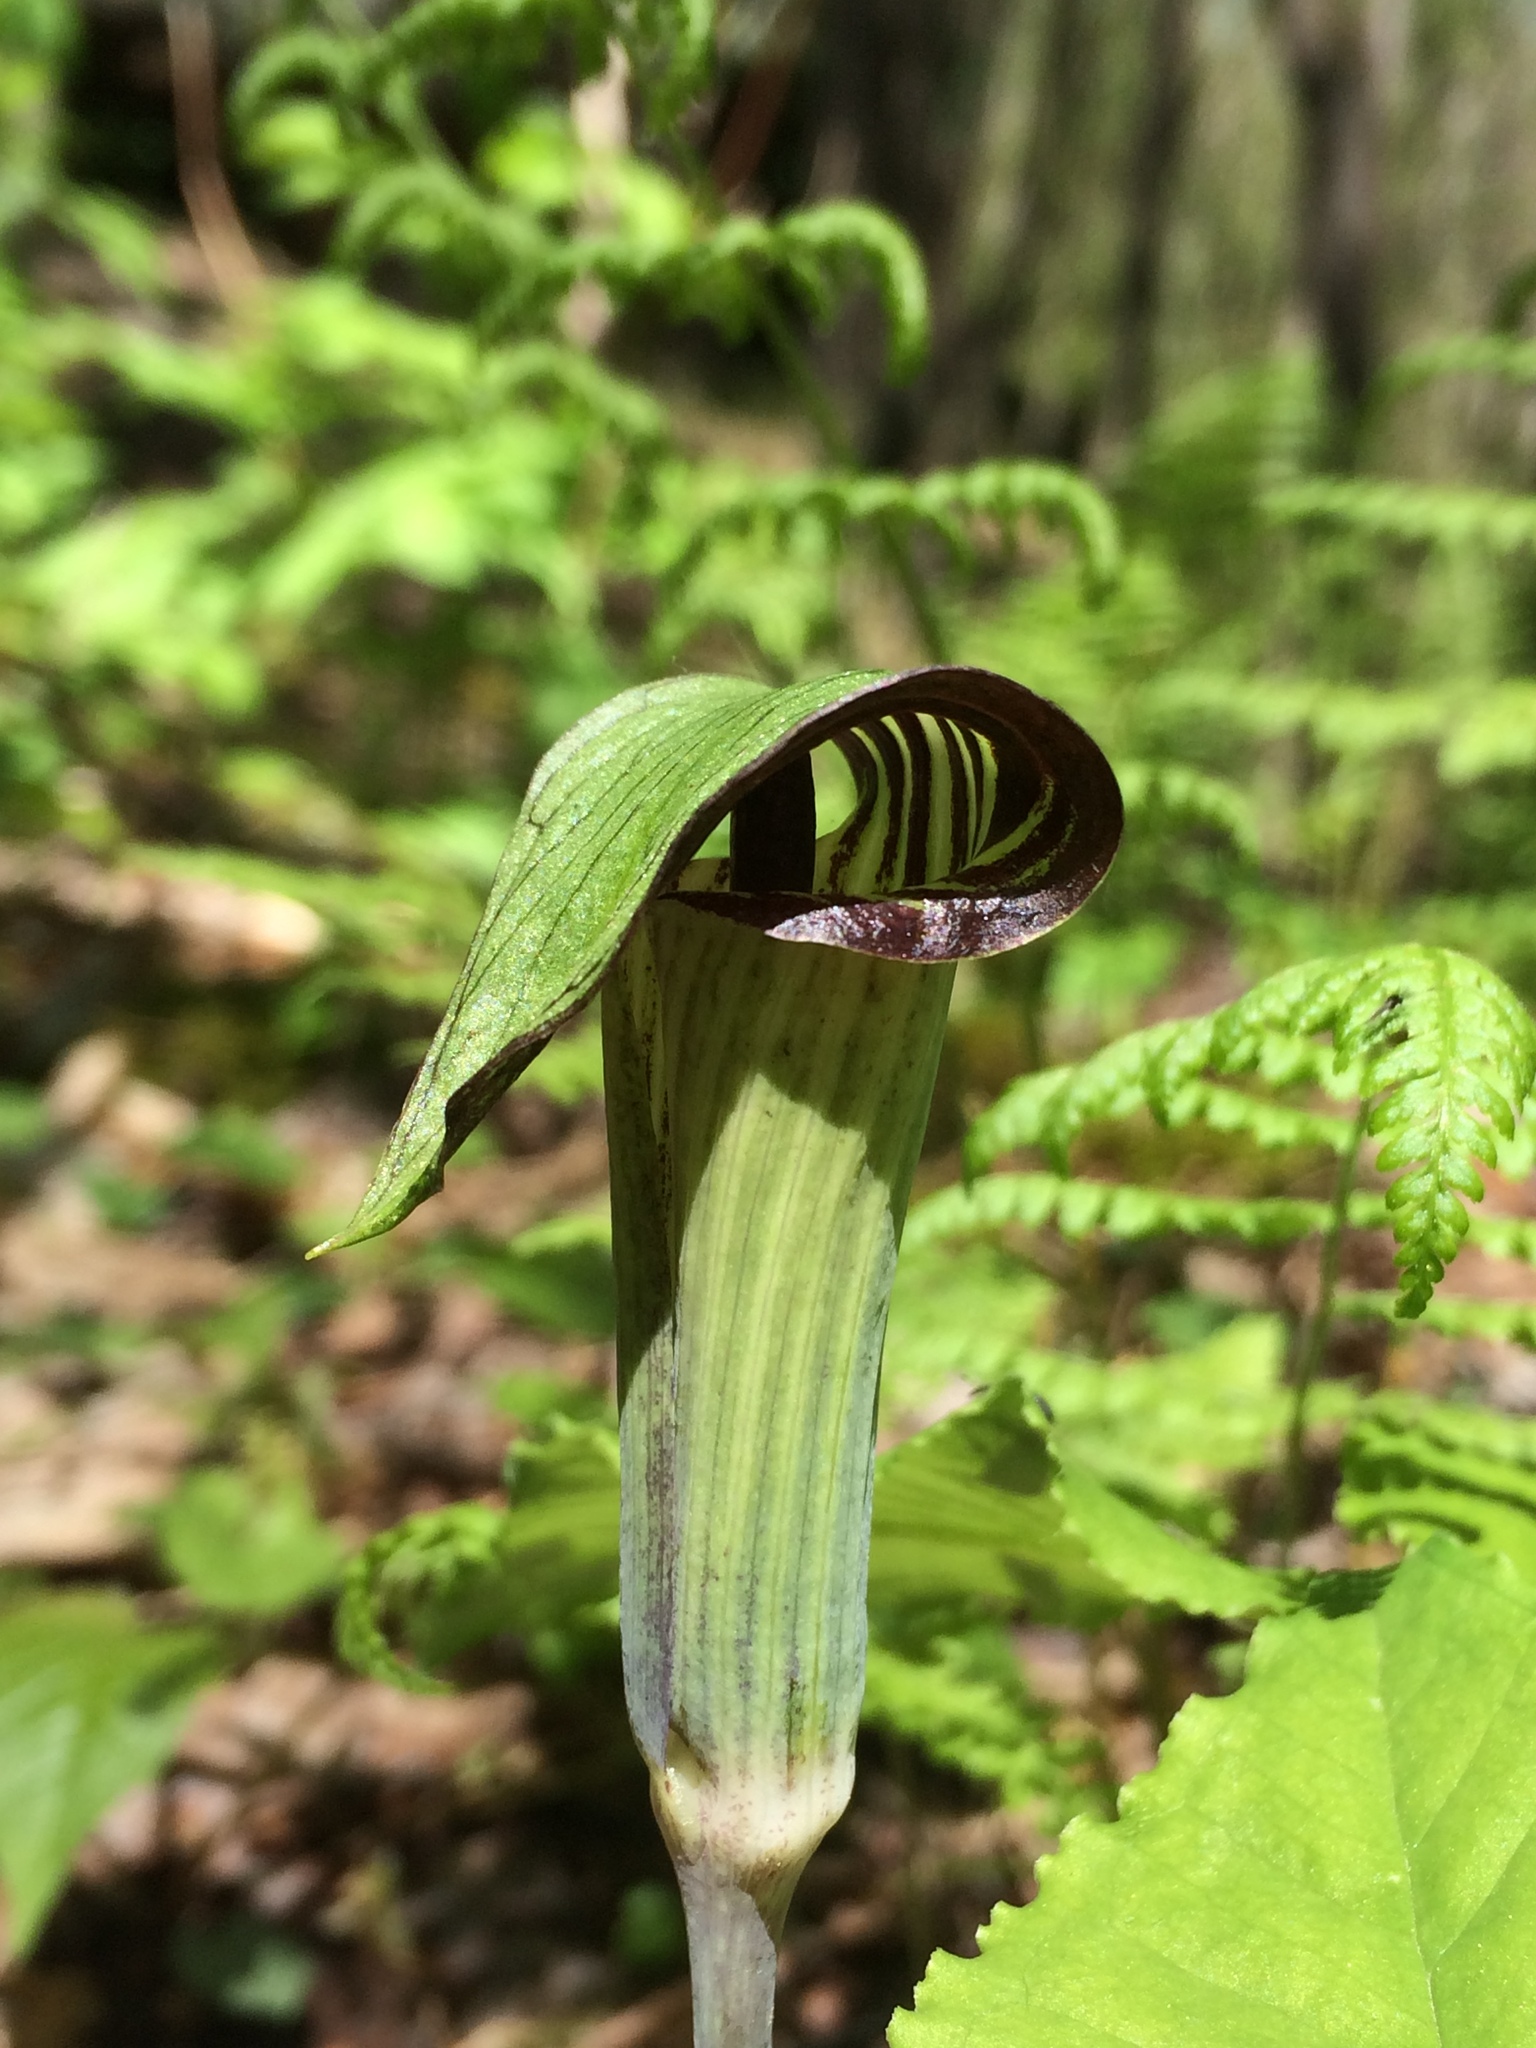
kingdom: Plantae
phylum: Tracheophyta
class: Liliopsida
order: Alismatales
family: Araceae
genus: Arisaema
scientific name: Arisaema triphyllum
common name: Jack-in-the-pulpit
